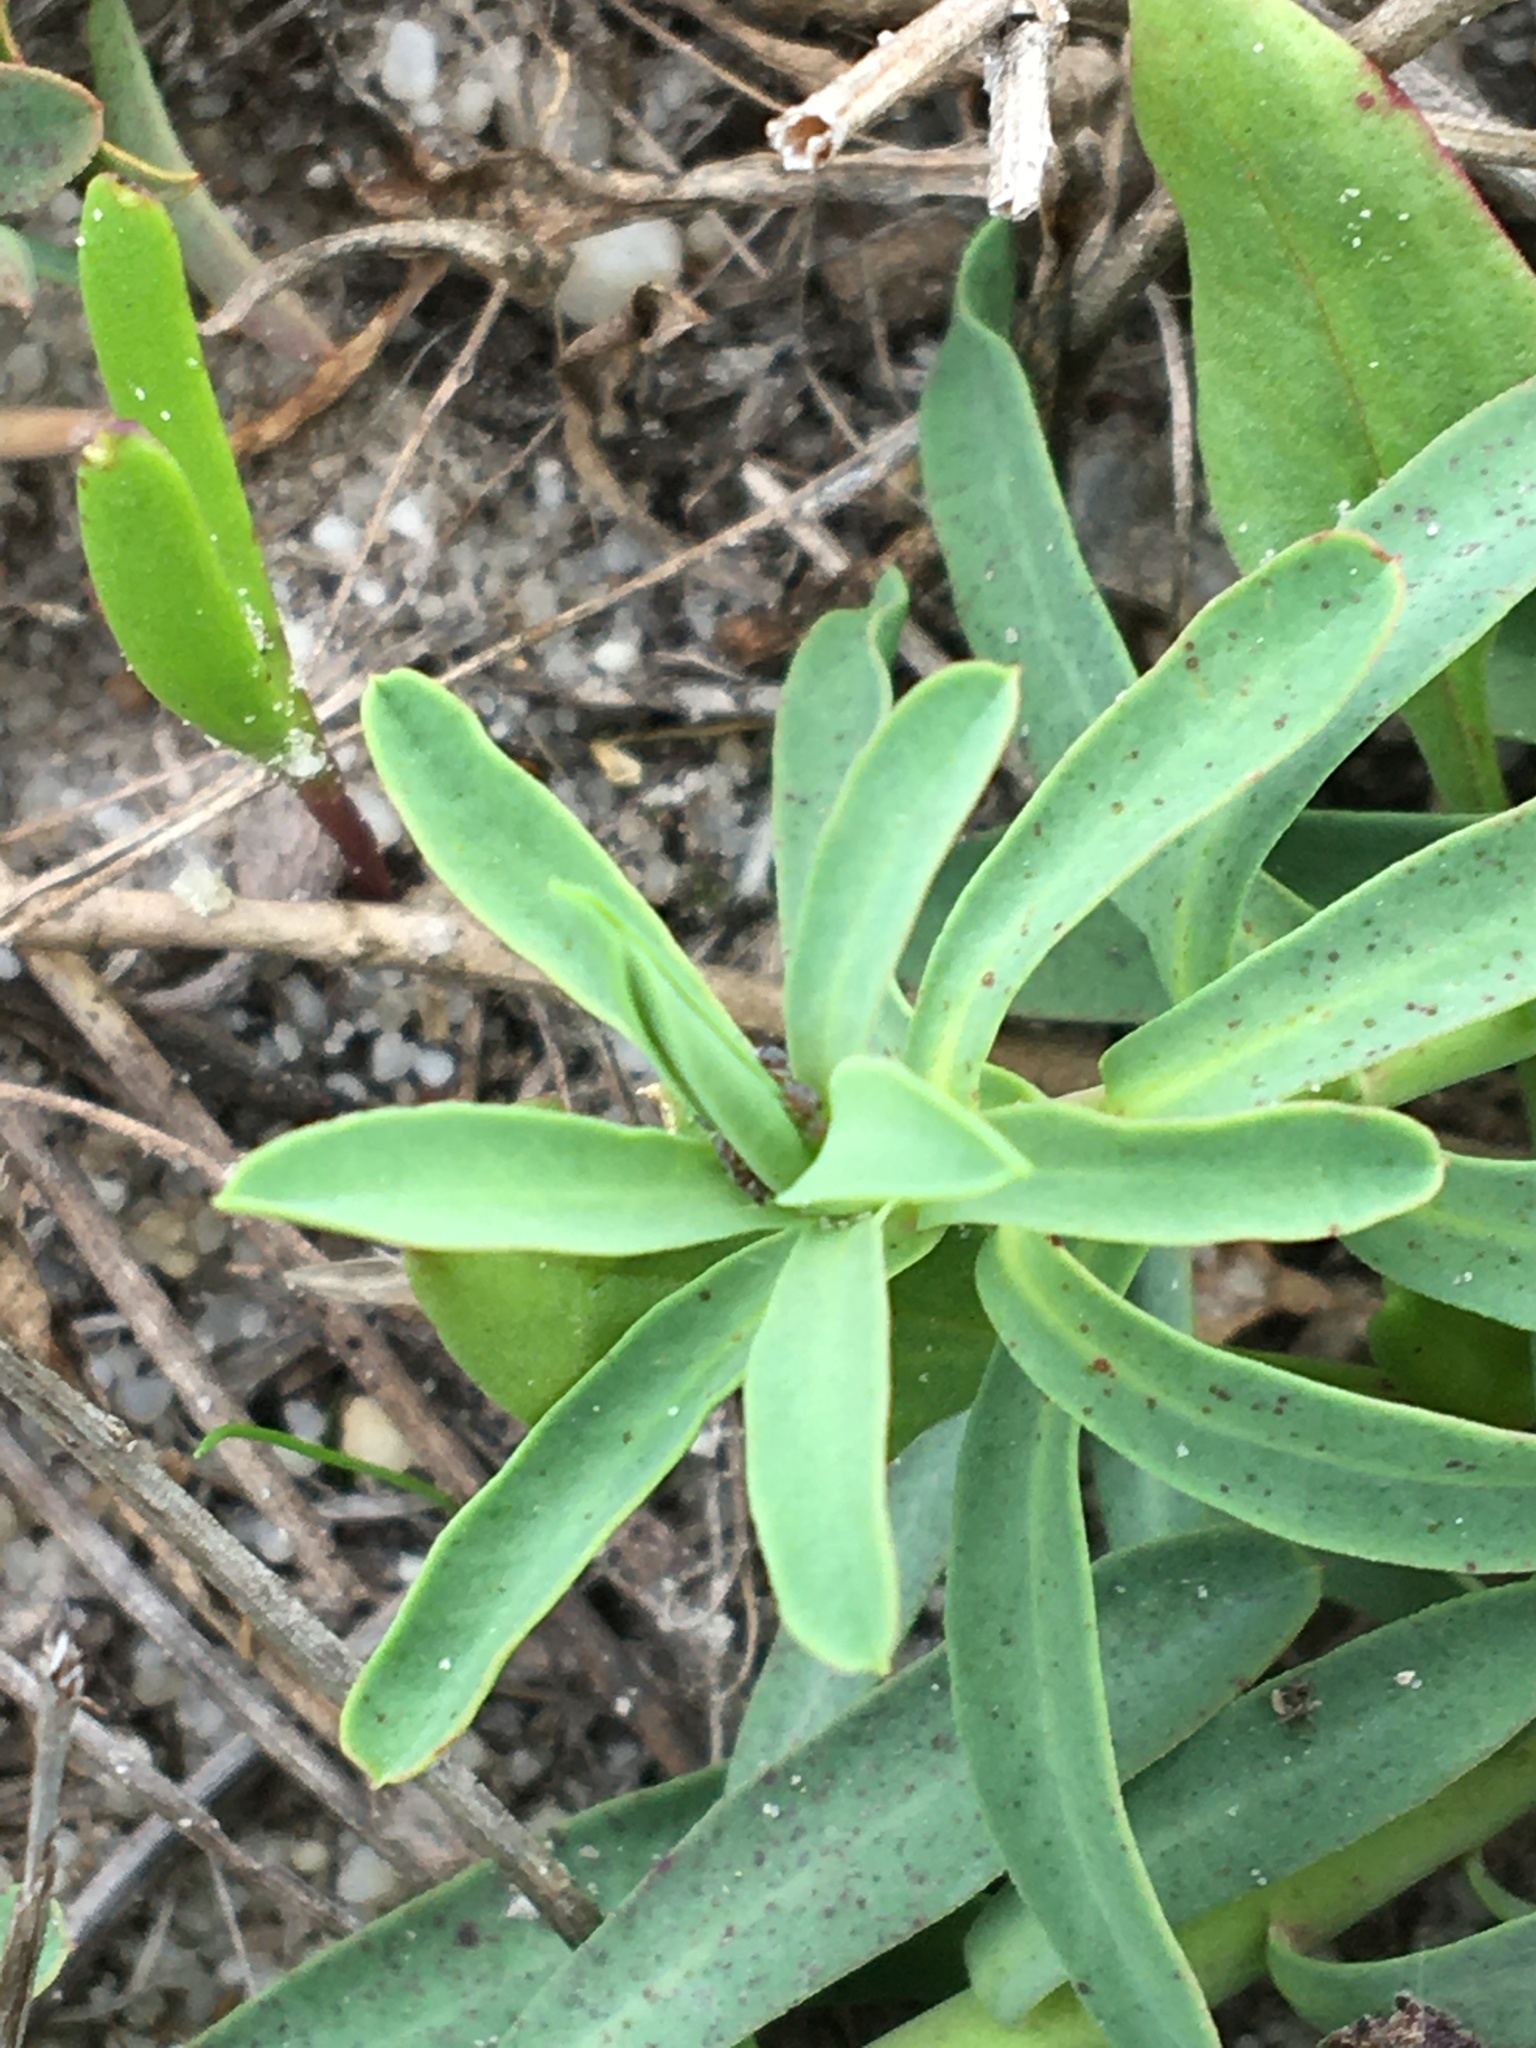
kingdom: Plantae
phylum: Tracheophyta
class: Magnoliopsida
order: Malpighiales
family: Euphorbiaceae
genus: Euphorbia
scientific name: Euphorbia terracina
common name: Geraldton carnation weed
